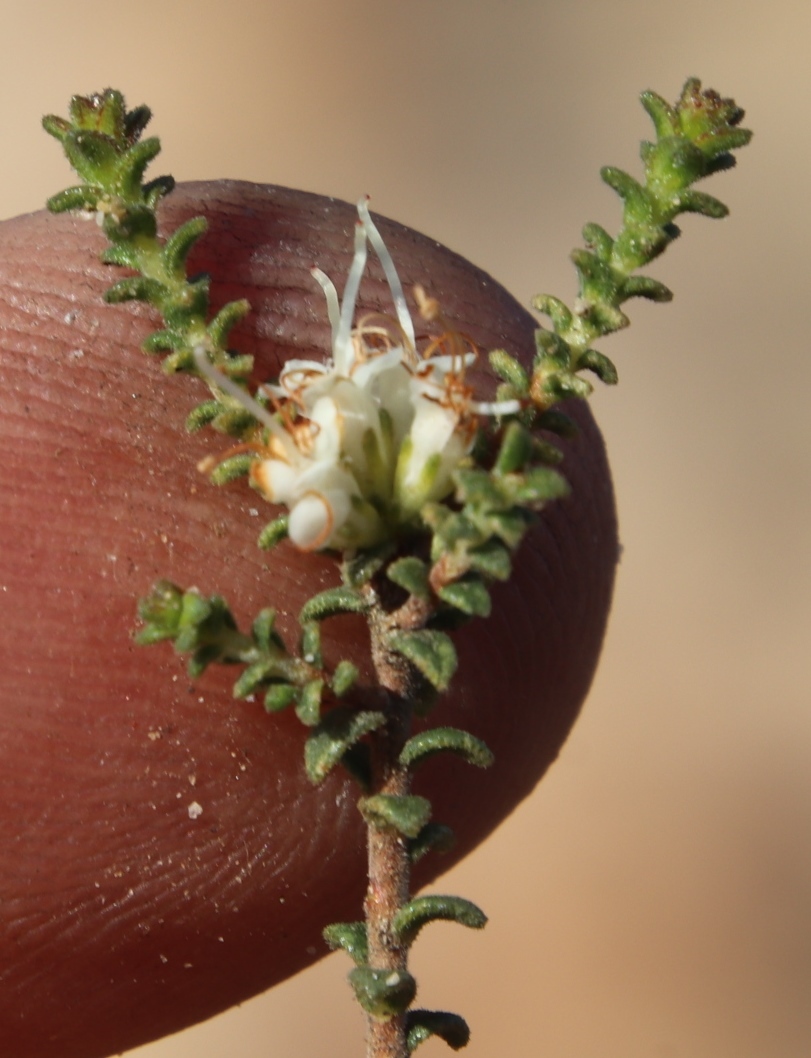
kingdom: Plantae
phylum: Tracheophyta
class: Magnoliopsida
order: Sapindales
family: Rutaceae
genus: Macrostylis
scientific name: Macrostylis squarrosa
